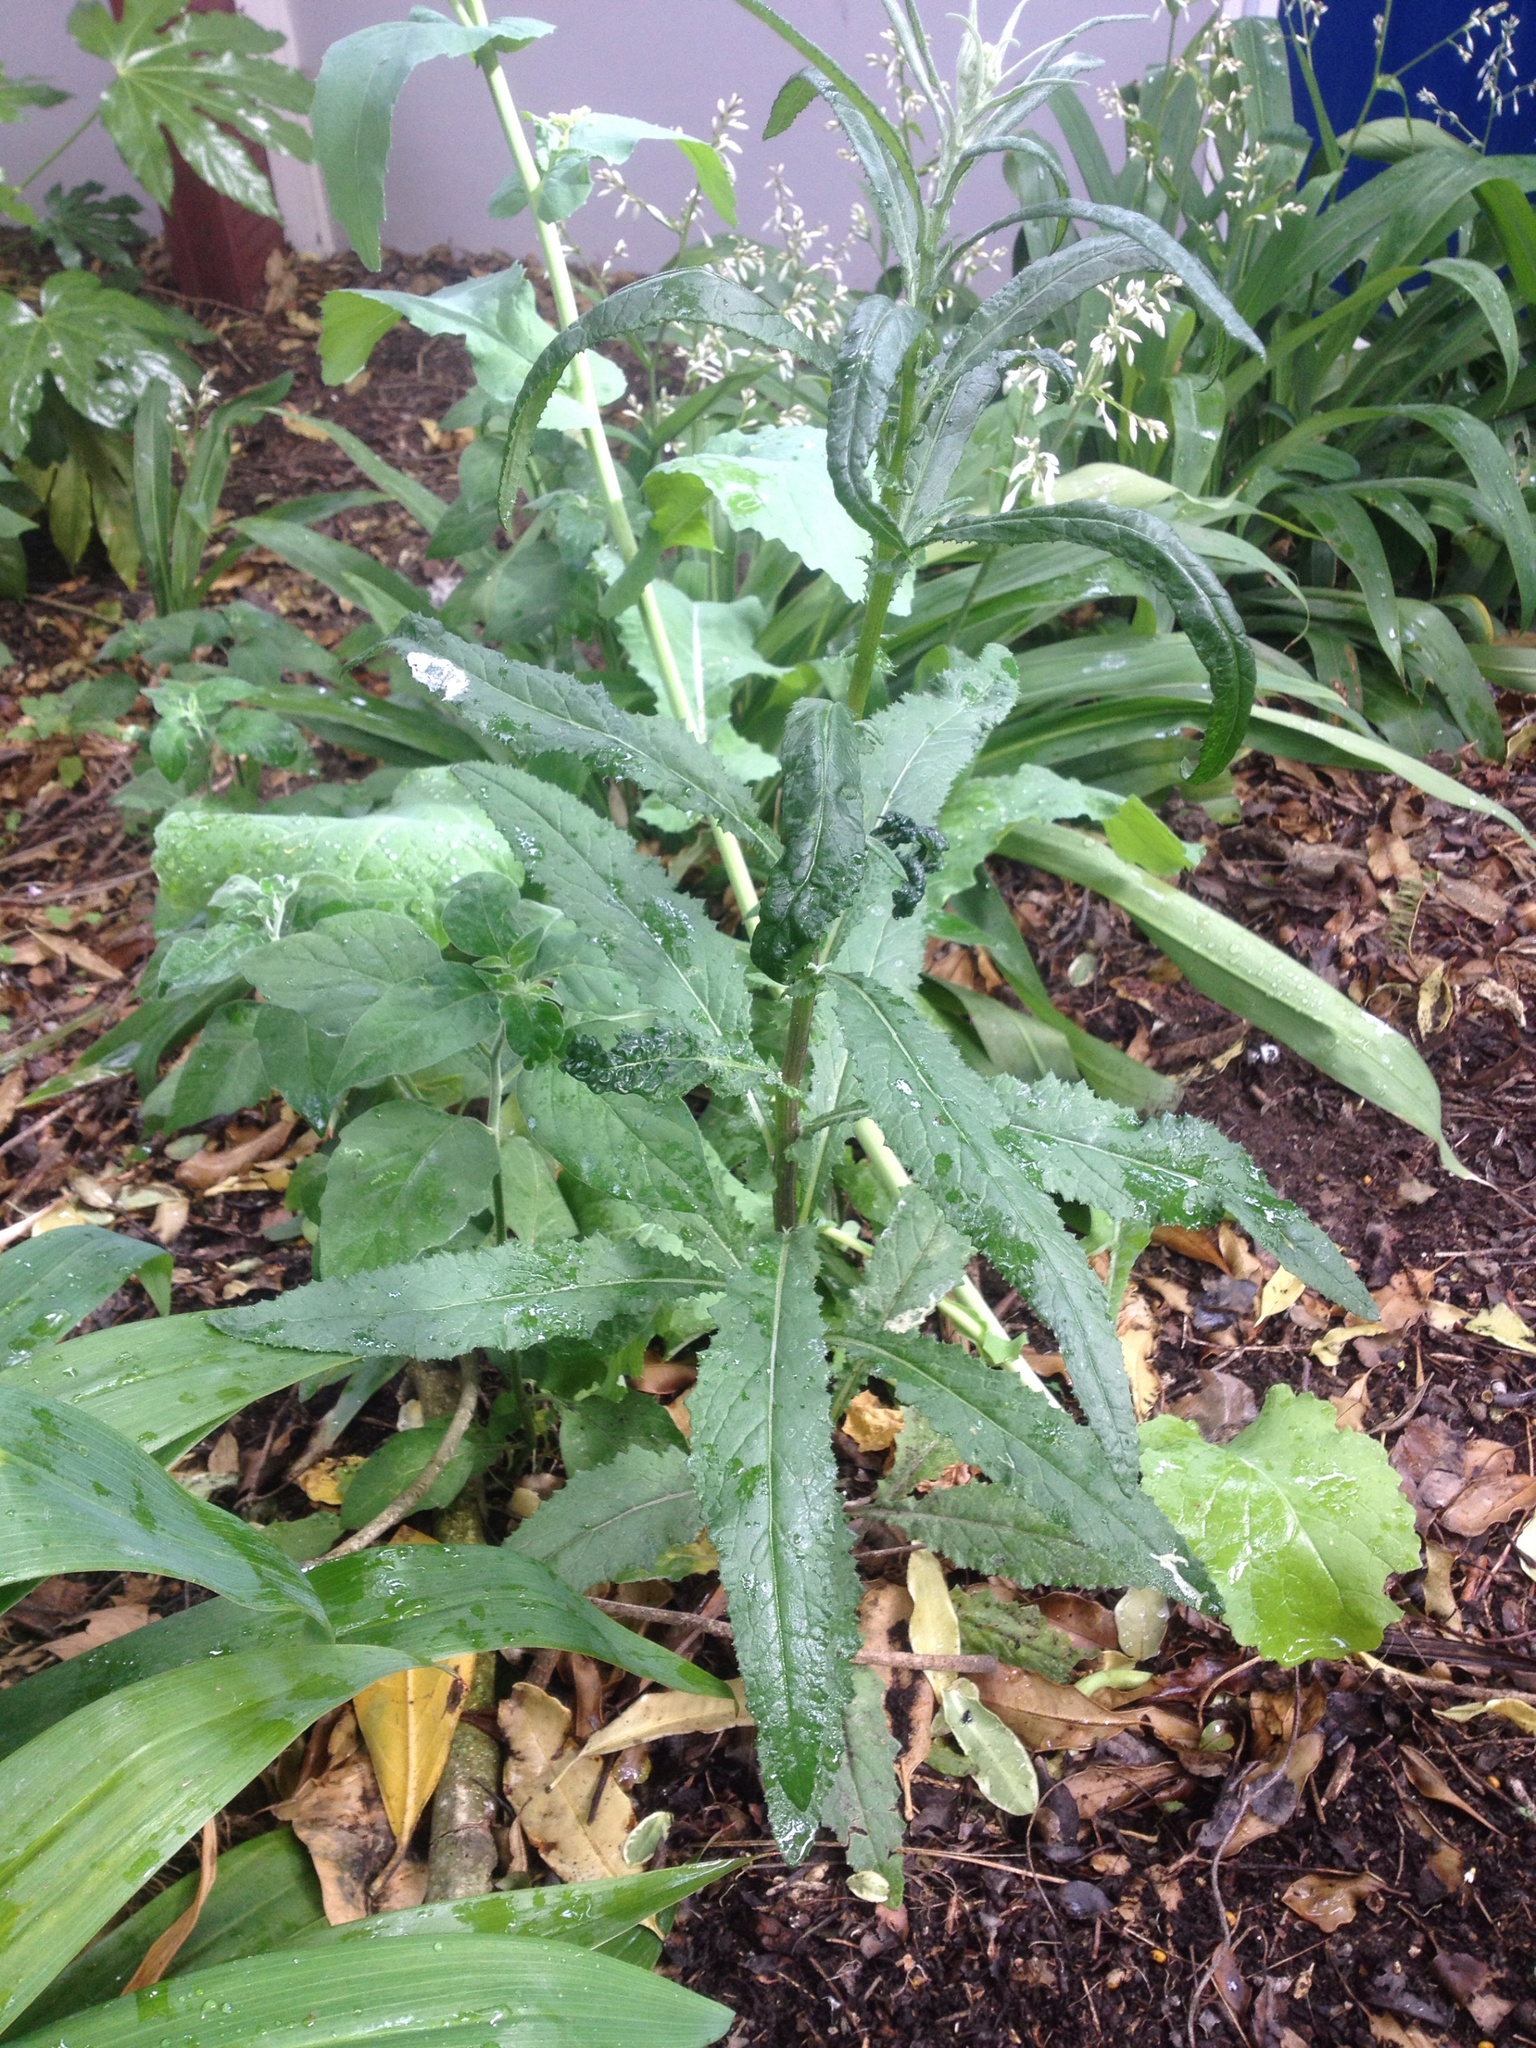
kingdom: Plantae
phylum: Tracheophyta
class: Magnoliopsida
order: Asterales
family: Asteraceae
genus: Senecio
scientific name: Senecio minimus
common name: Toothed fireweed
